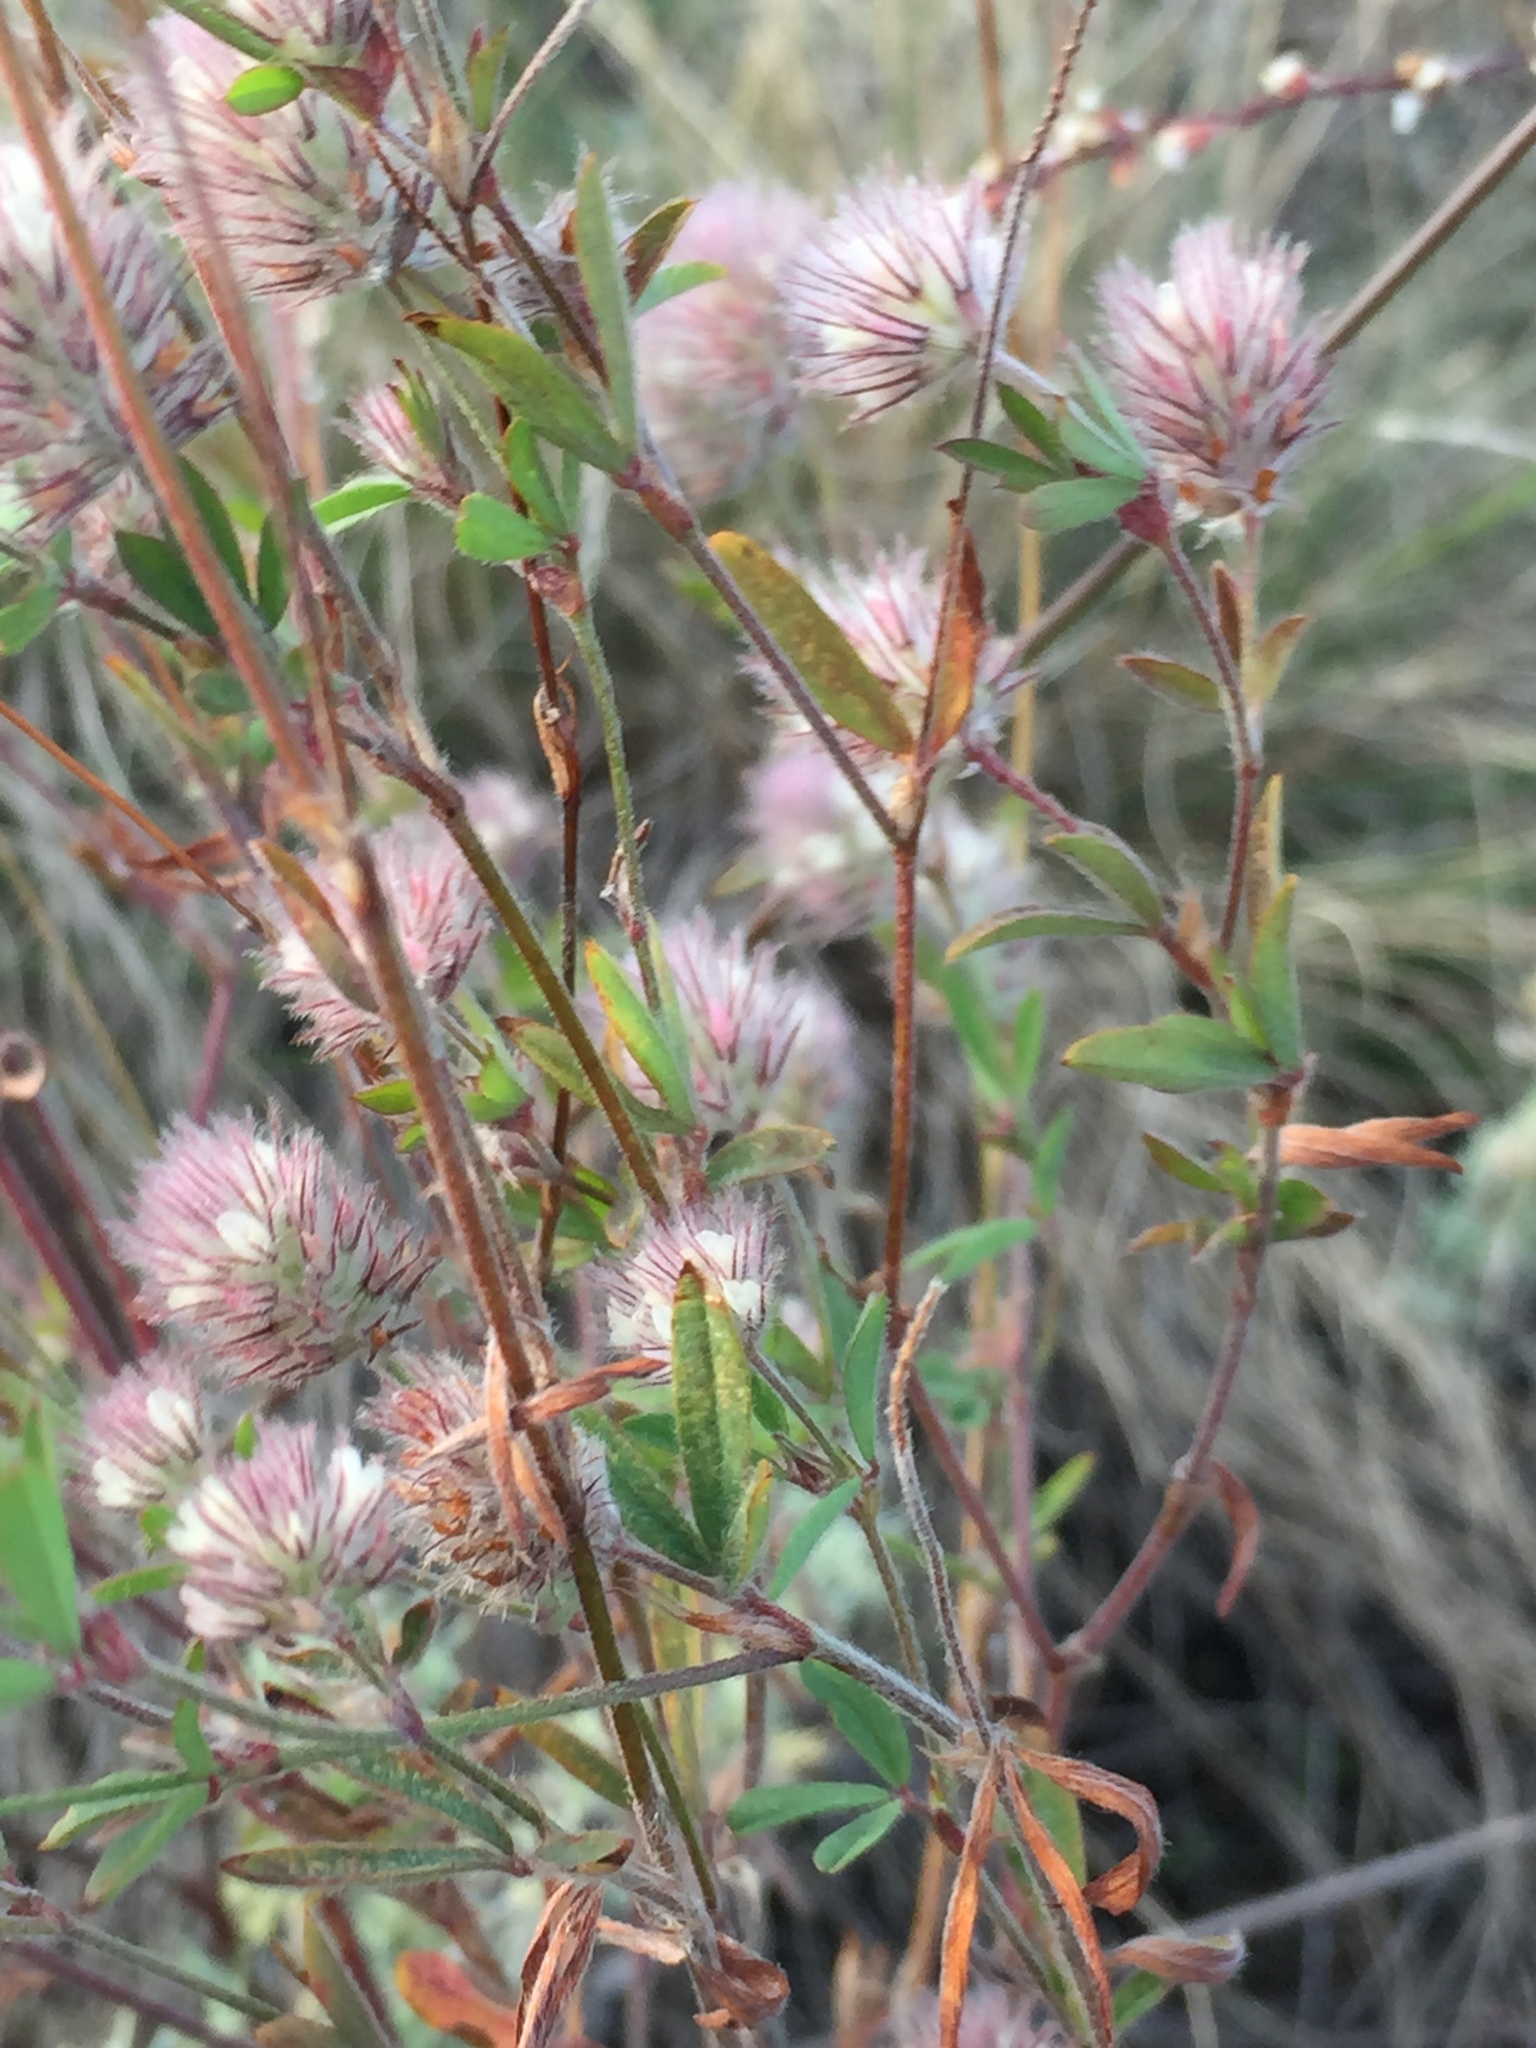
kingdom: Plantae
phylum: Tracheophyta
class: Magnoliopsida
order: Fabales
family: Fabaceae
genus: Trifolium
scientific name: Trifolium arvense
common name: Hare's-foot clover
